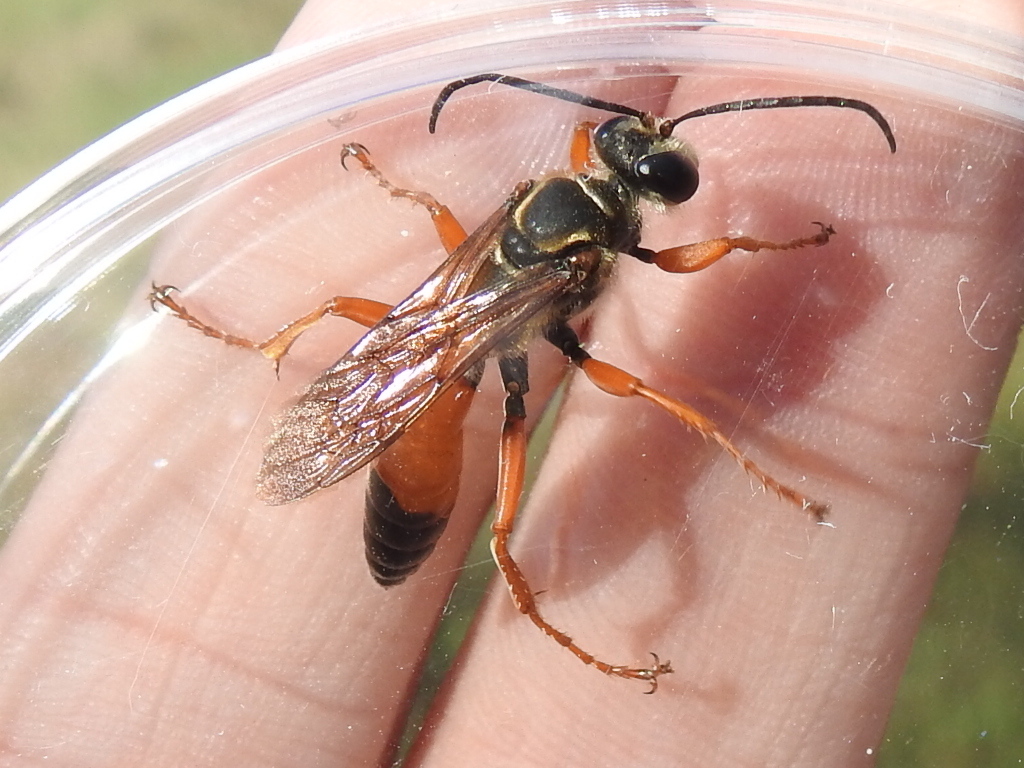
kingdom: Animalia
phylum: Arthropoda
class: Insecta
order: Hymenoptera
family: Sphecidae
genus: Sphex
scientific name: Sphex ichneumoneus
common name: Great golden digger wasp
